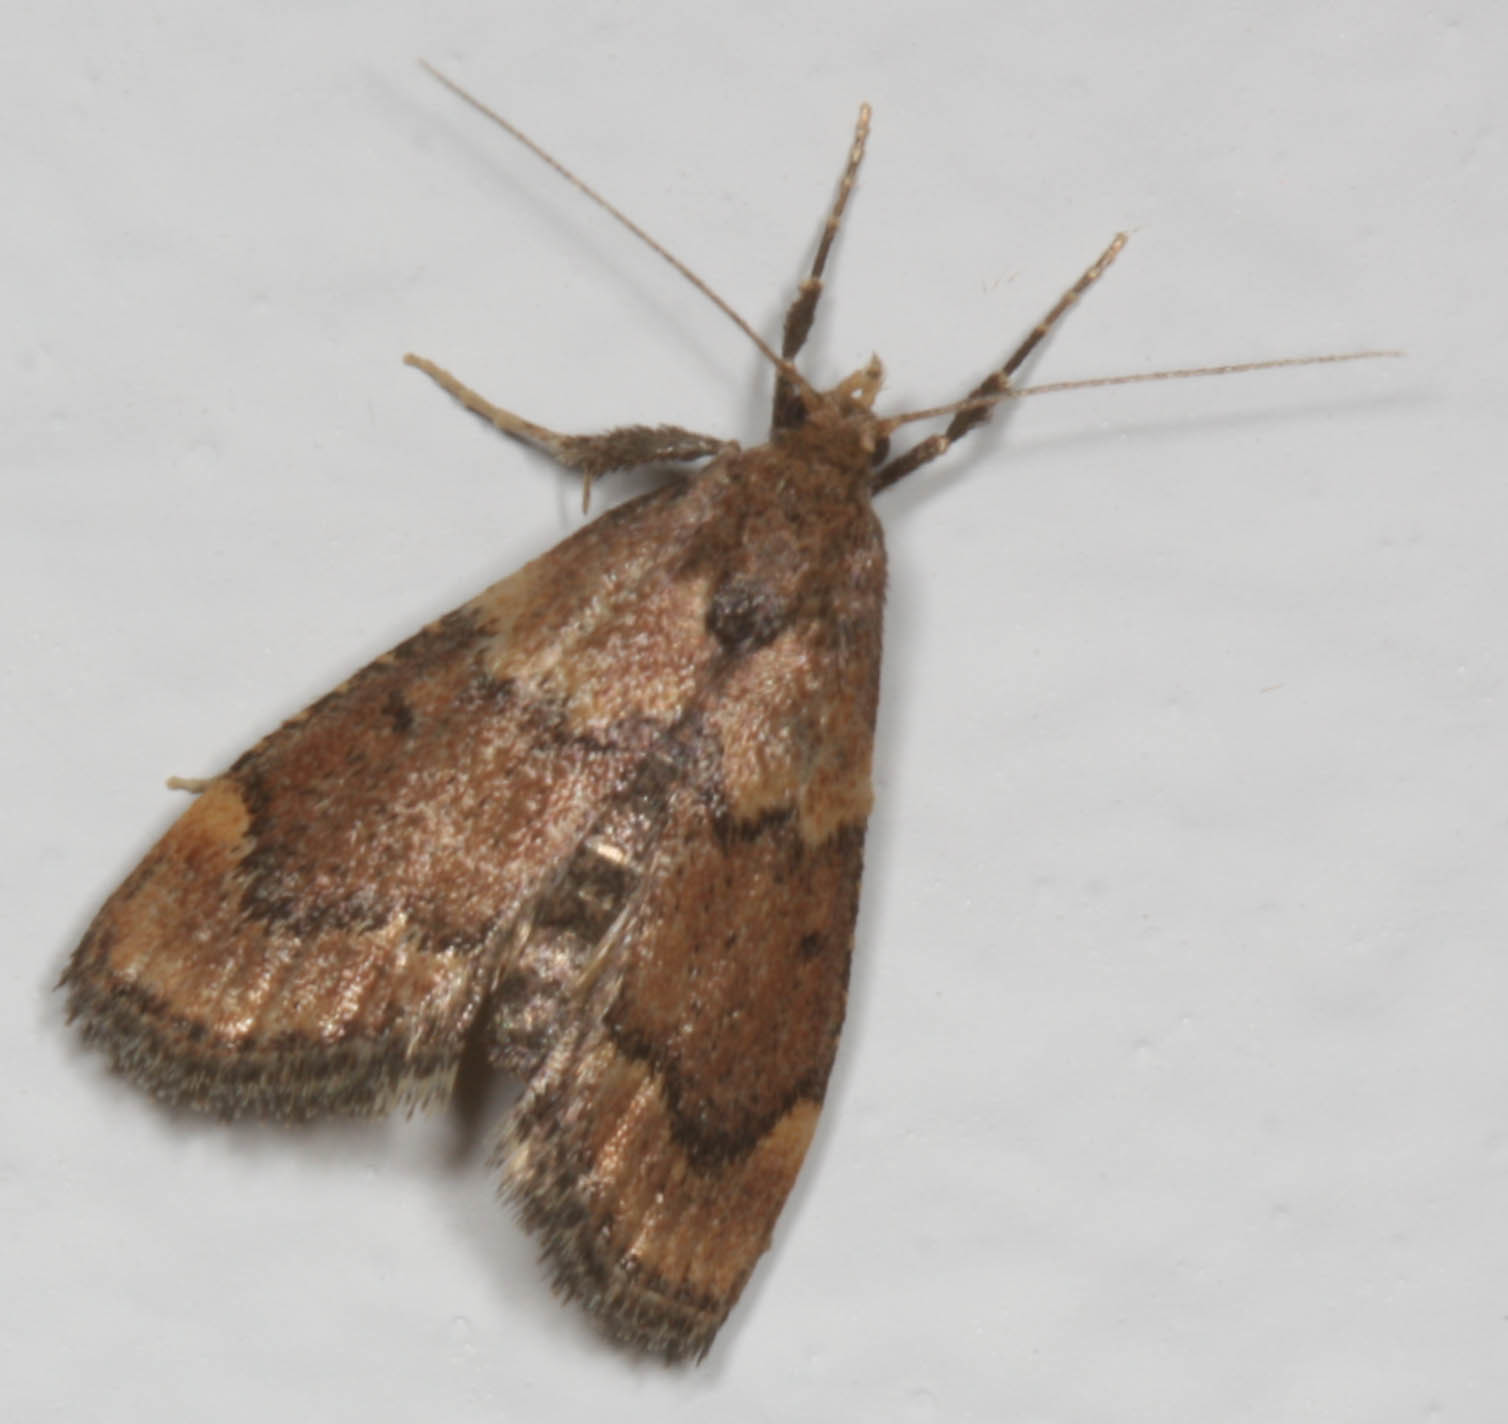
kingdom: Animalia
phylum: Arthropoda
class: Insecta
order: Lepidoptera
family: Pyralidae
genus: Hypsopygia
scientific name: Hypsopygia phoezalis
